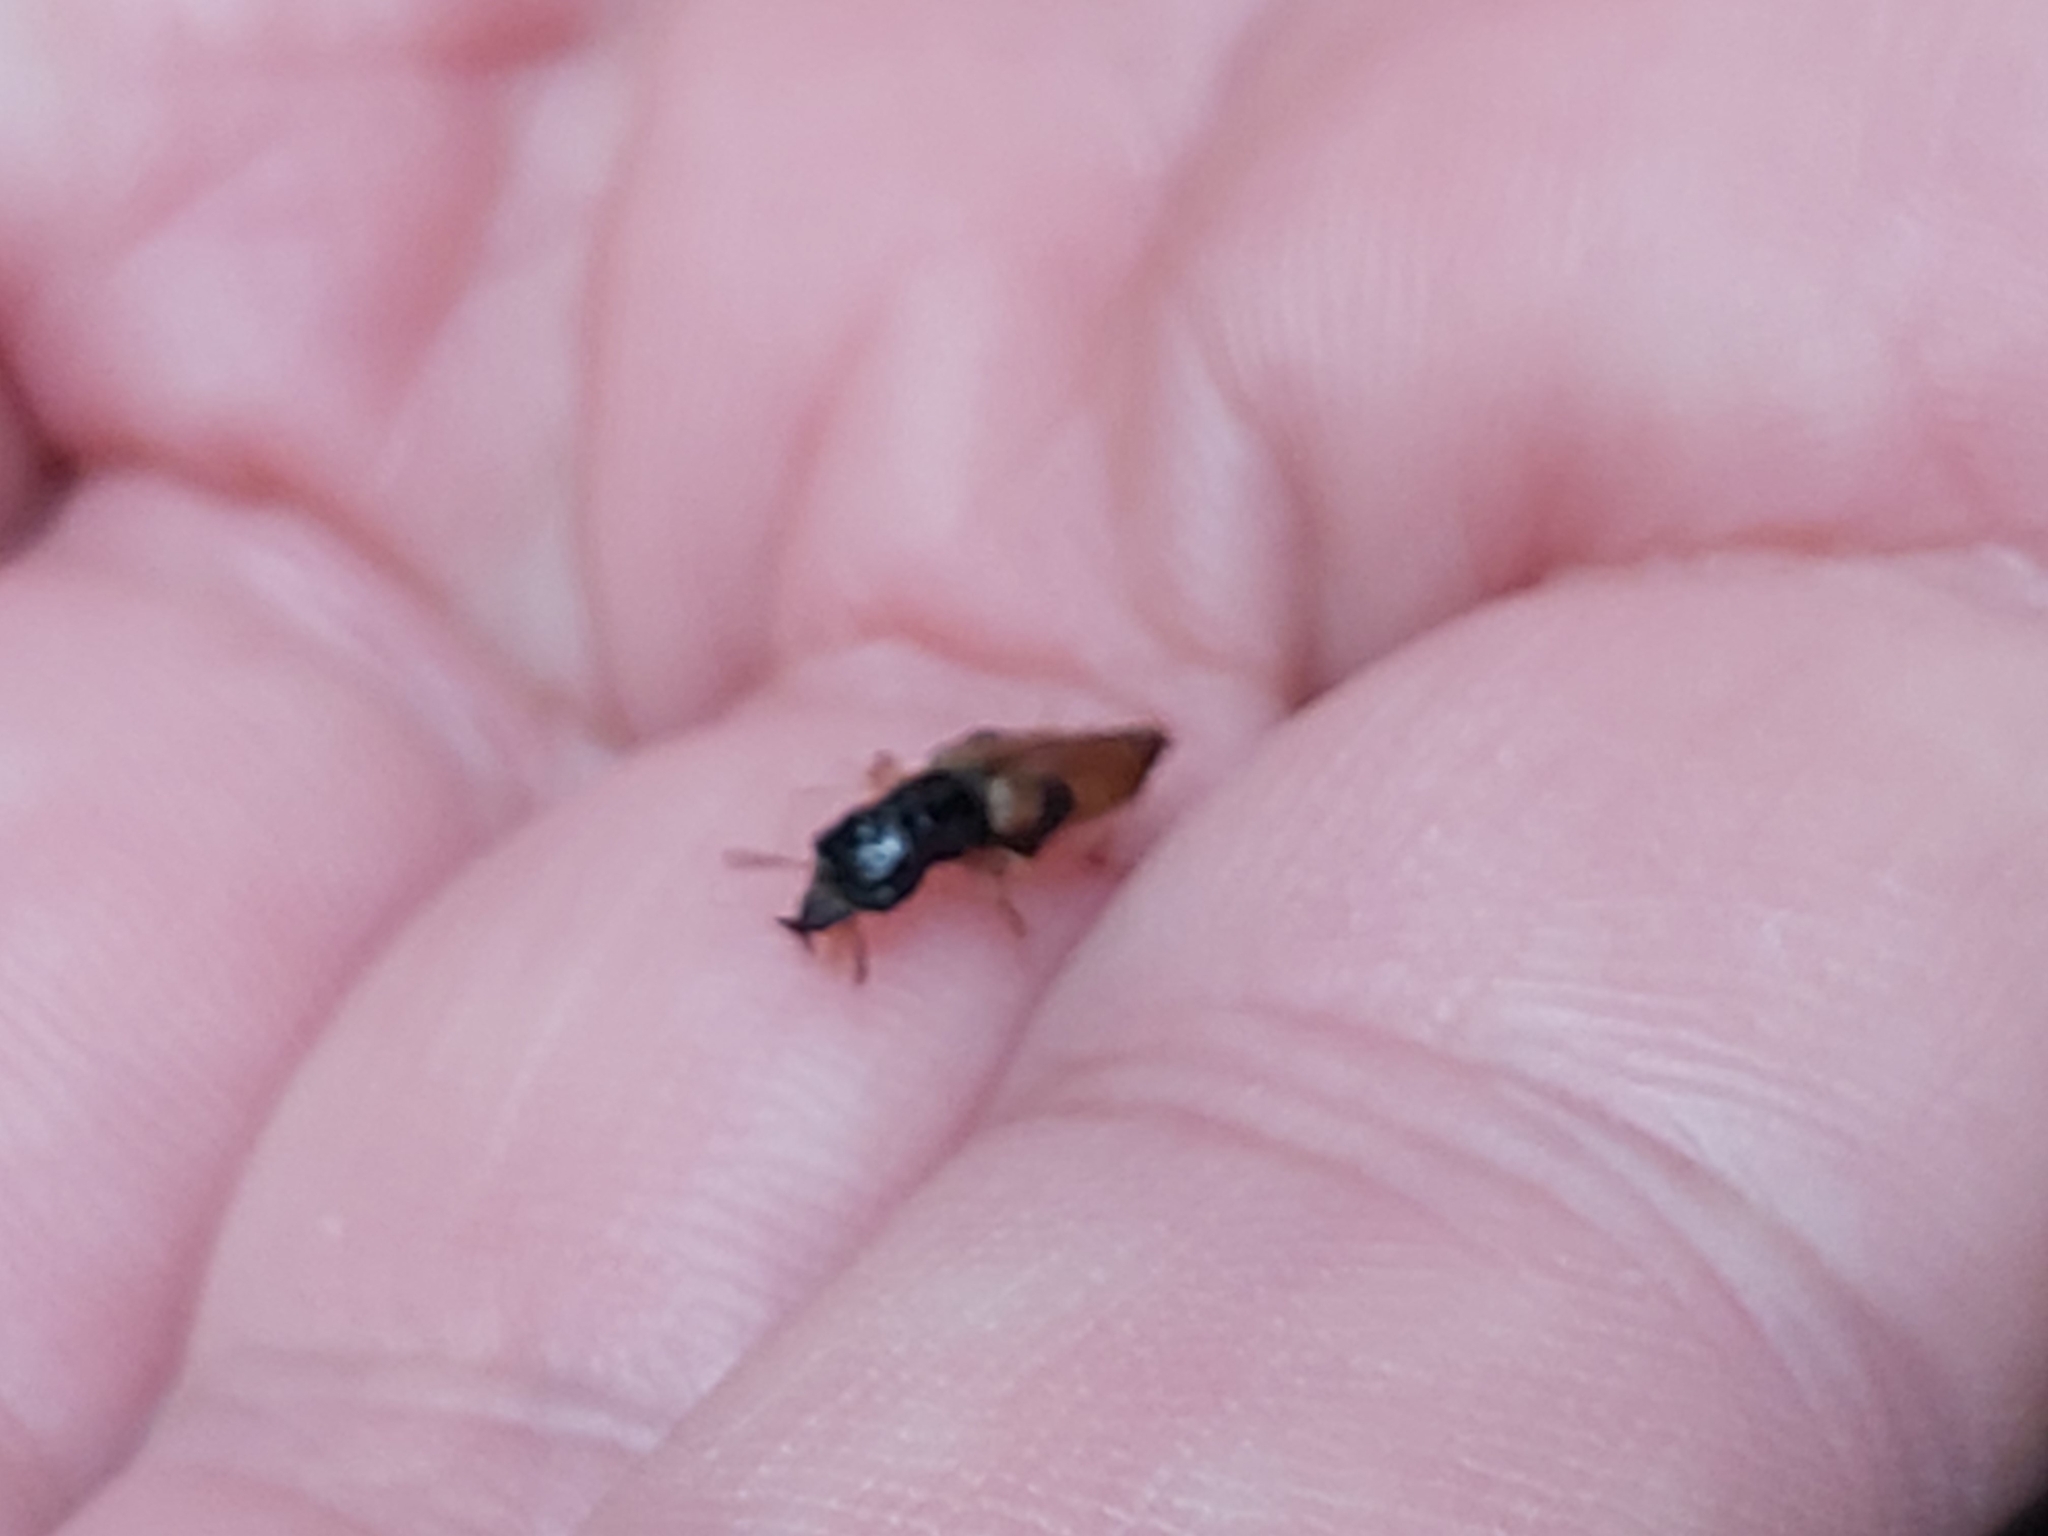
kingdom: Animalia
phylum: Arthropoda
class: Insecta
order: Coleoptera
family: Staphylinidae
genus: Oxyporus
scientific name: Oxyporus maxillosus
